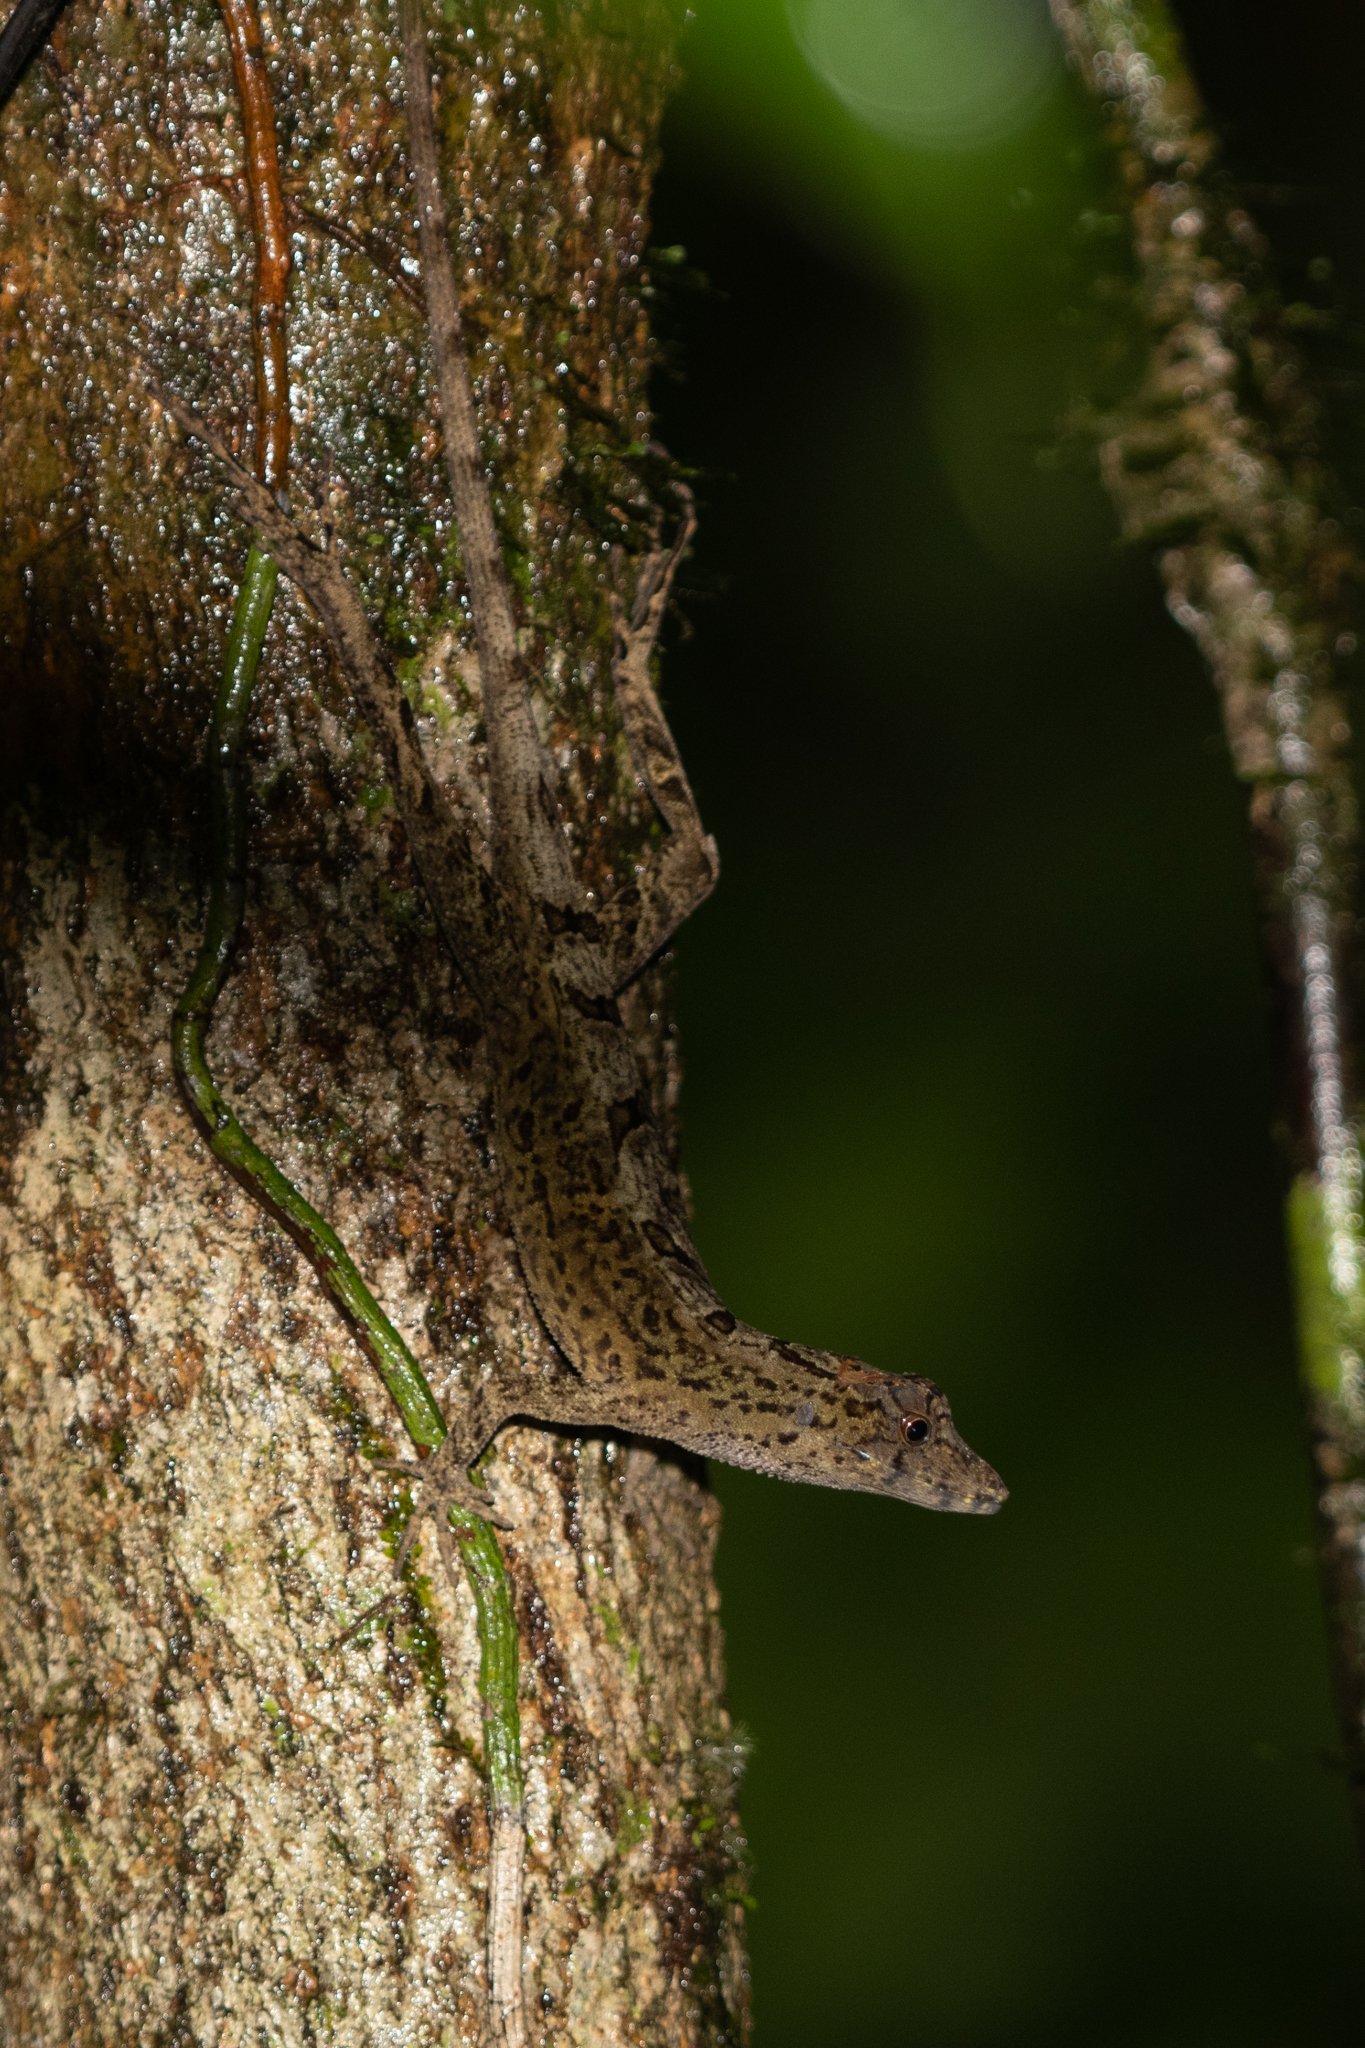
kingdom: Animalia
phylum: Chordata
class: Squamata
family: Dactyloidae
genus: Anolis
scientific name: Anolis lemurinus
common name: Ghost anole
